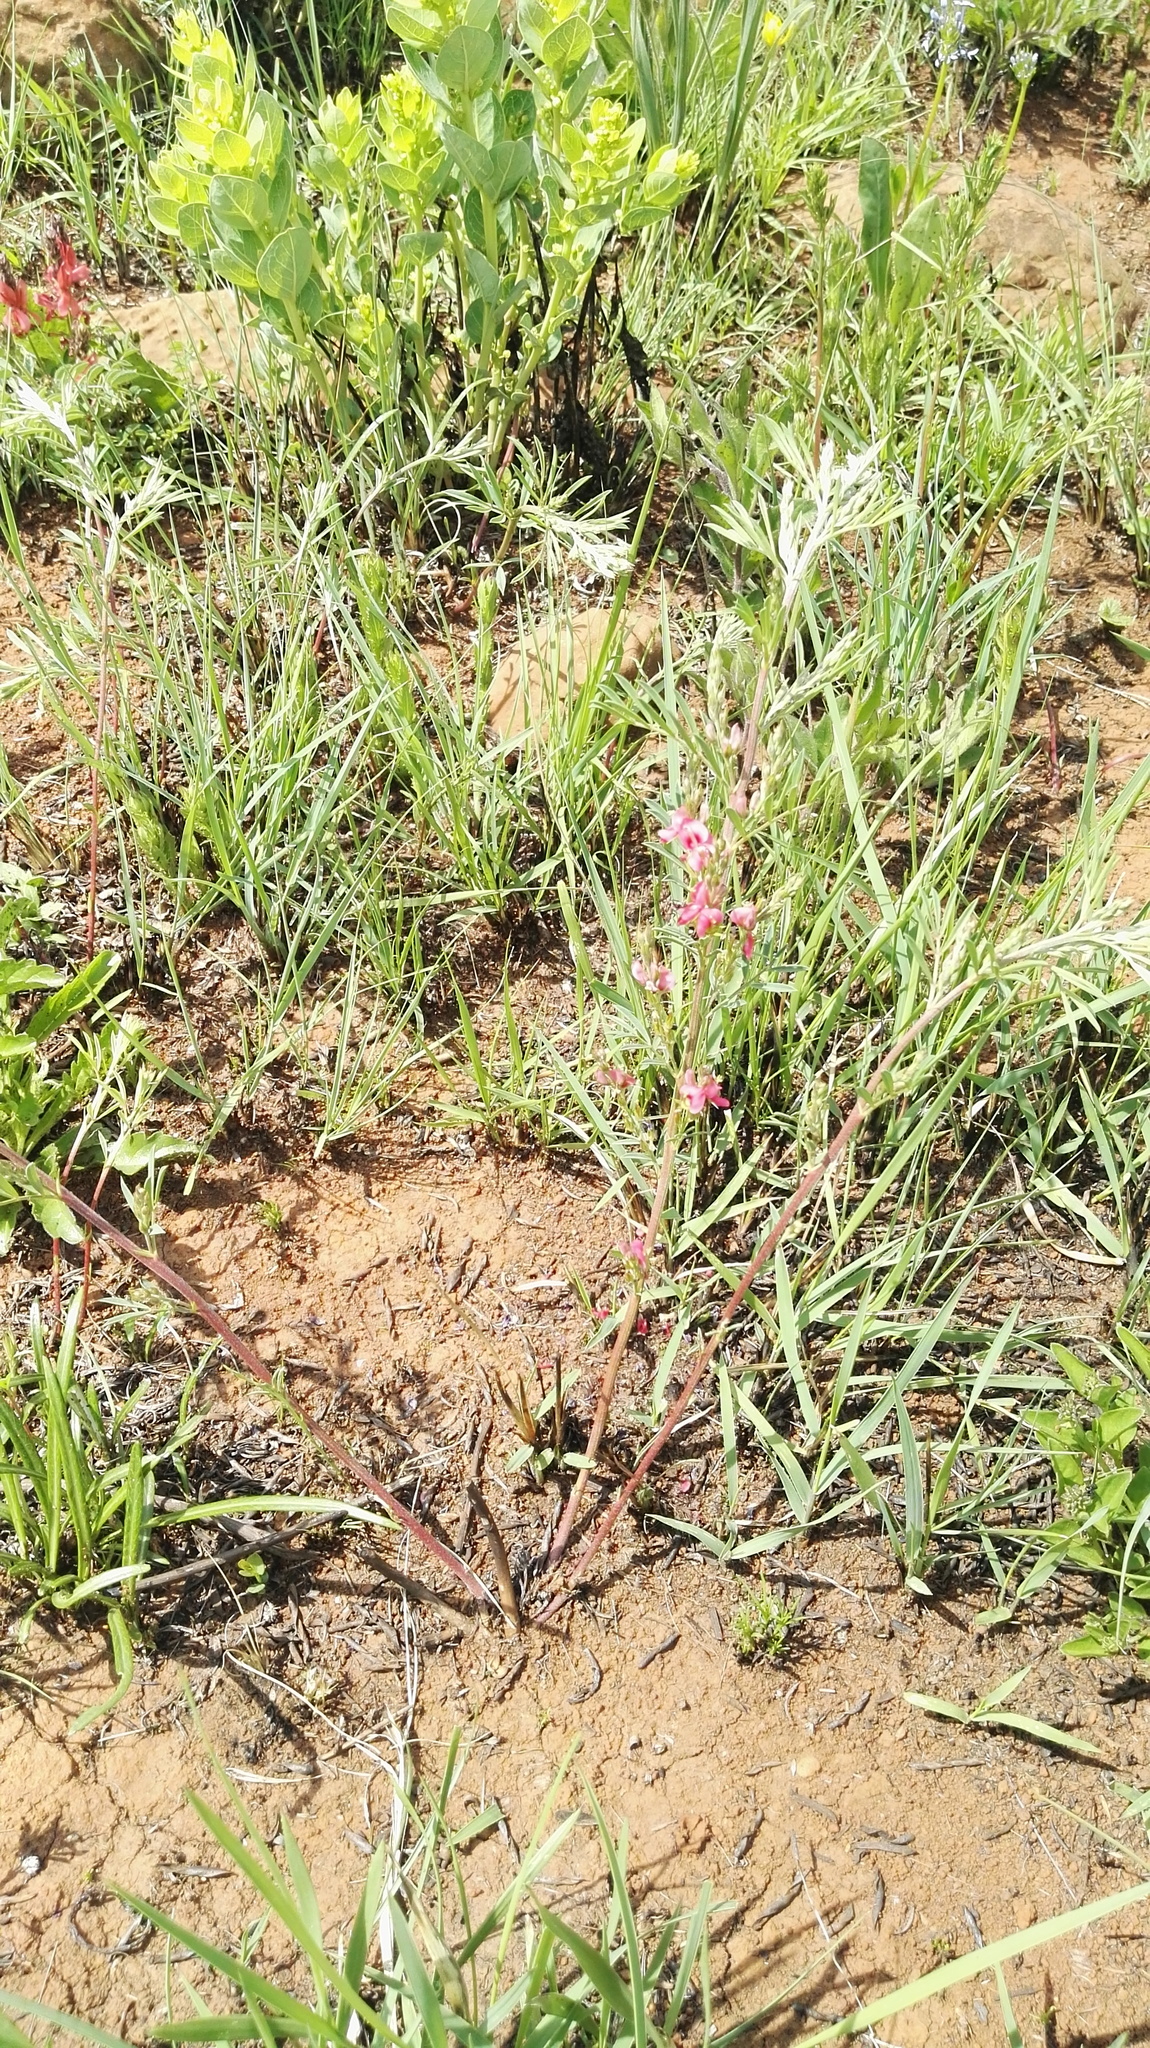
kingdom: Plantae
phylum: Tracheophyta
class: Magnoliopsida
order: Fabales
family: Fabaceae
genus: Indigofera
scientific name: Indigofera hilaris
